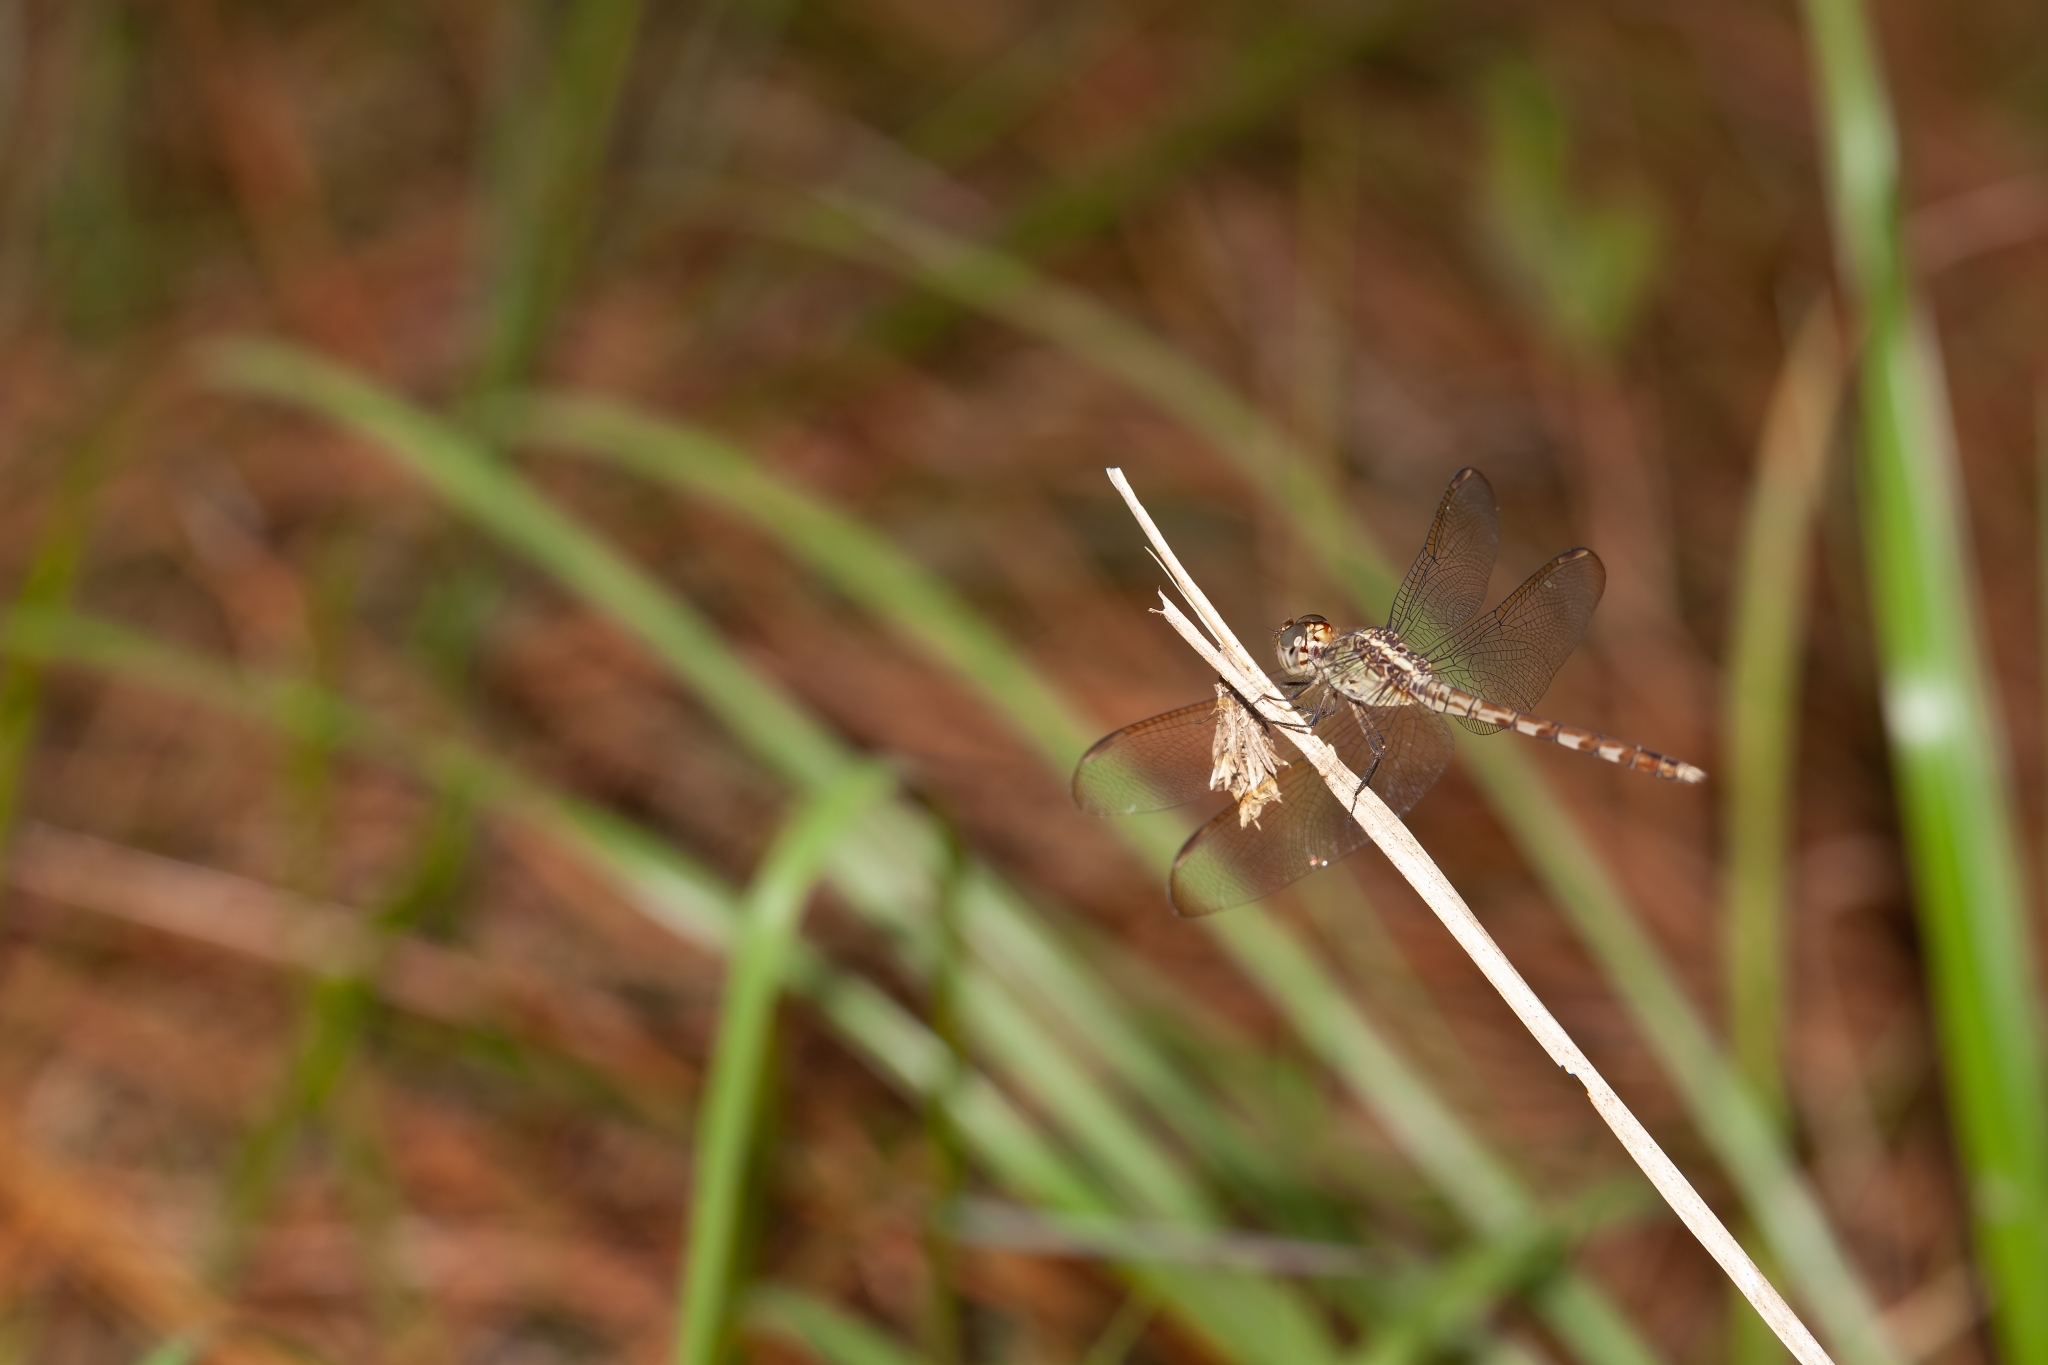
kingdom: Animalia
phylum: Arthropoda
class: Insecta
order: Odonata
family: Libellulidae
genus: Erythrodiplax
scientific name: Erythrodiplax umbrata
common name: Band-winged dragonlet
